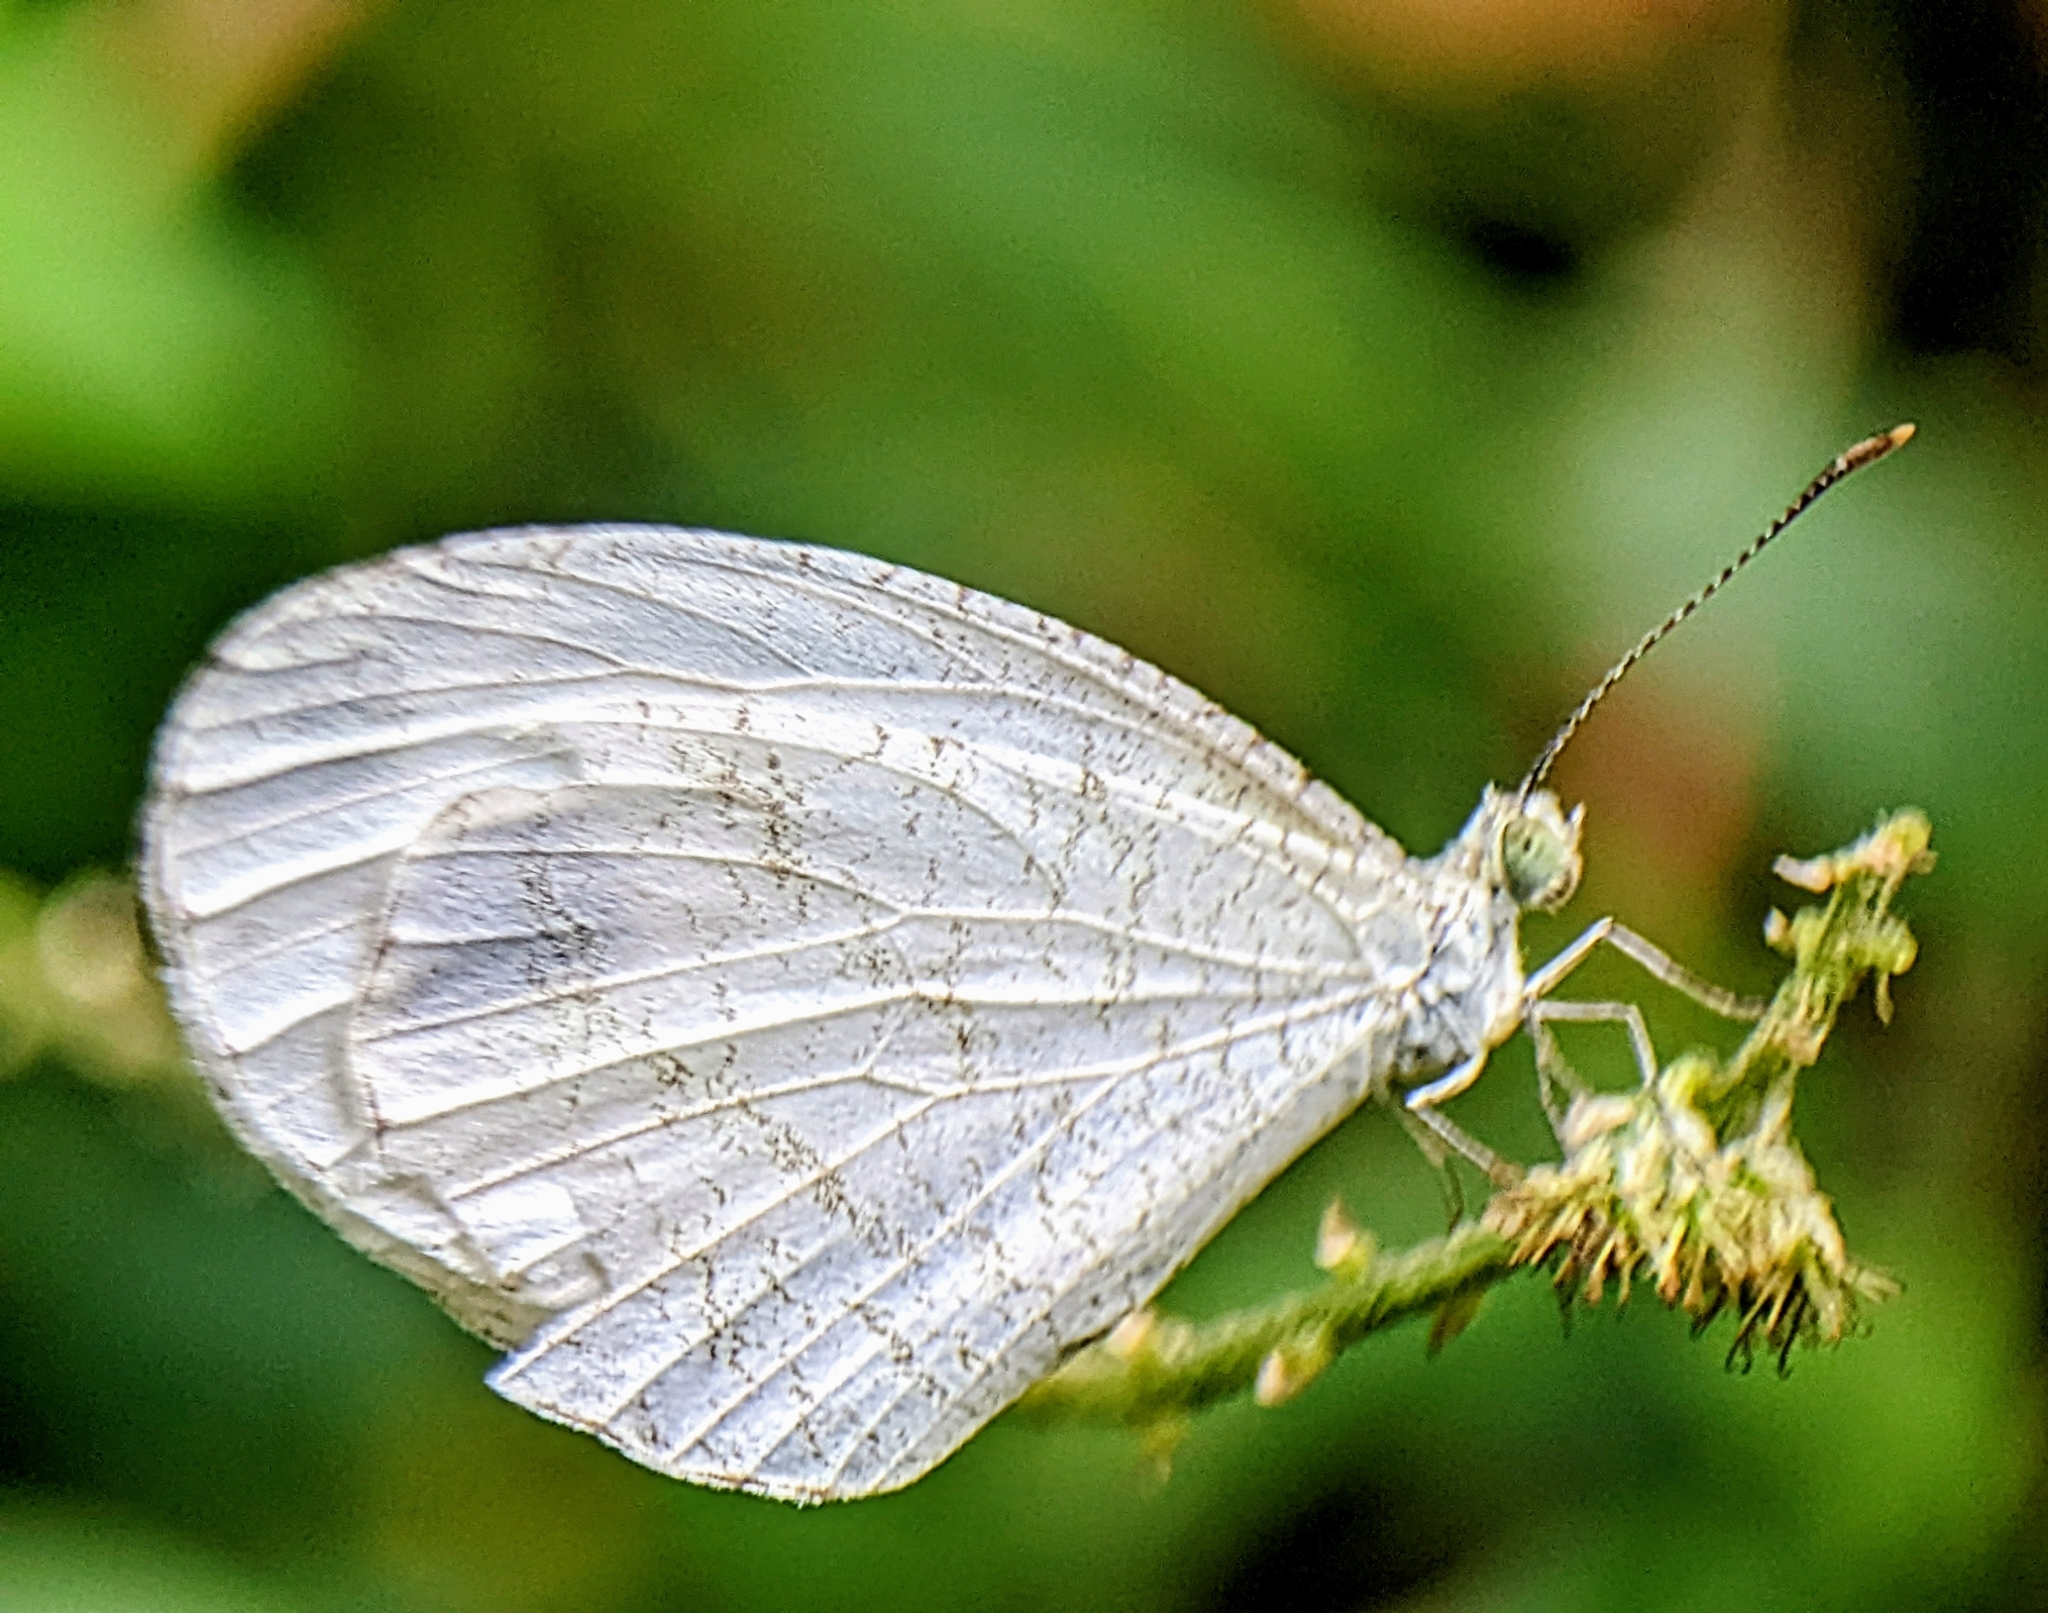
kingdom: Animalia
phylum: Arthropoda
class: Insecta
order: Lepidoptera
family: Pieridae
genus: Leptosia
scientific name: Leptosia nina
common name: Psyche
